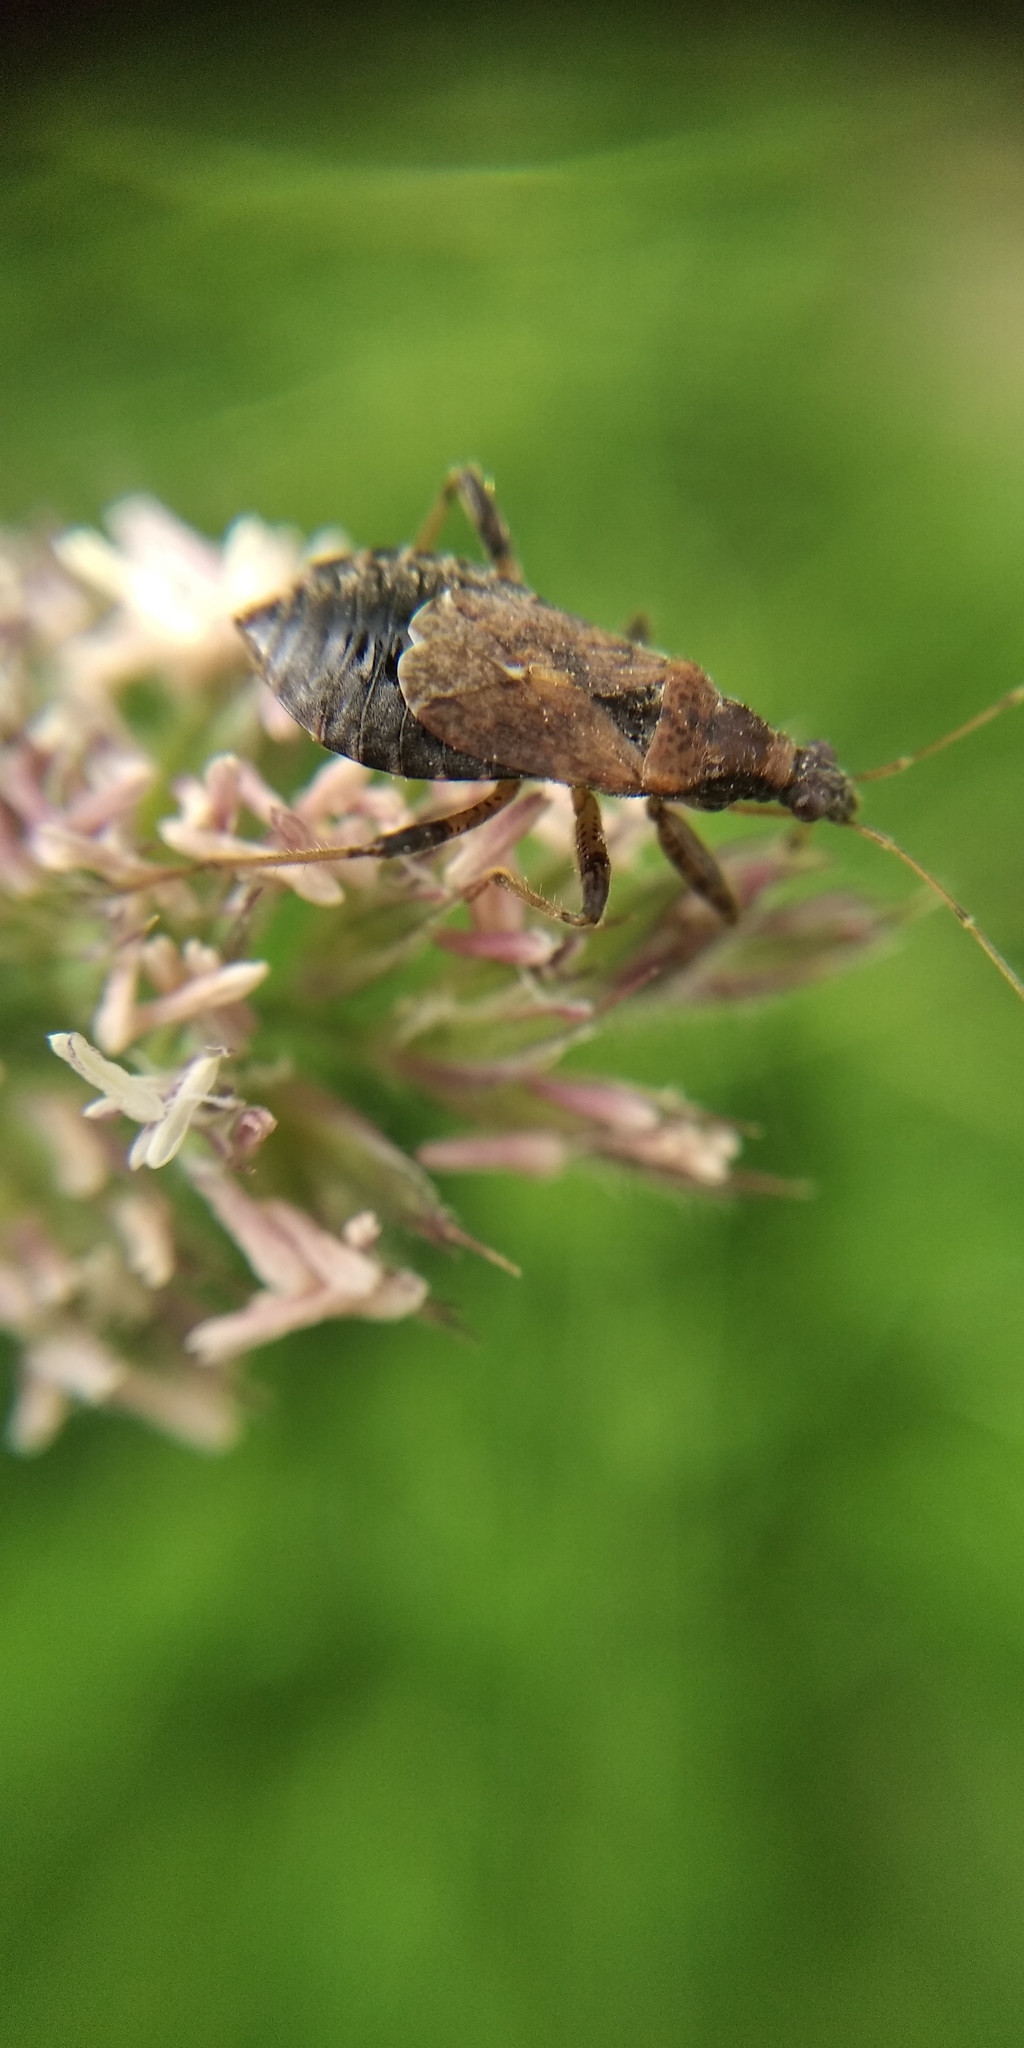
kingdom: Animalia
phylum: Arthropoda
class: Insecta
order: Hemiptera
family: Nabidae
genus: Himacerus
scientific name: Himacerus mirmicoides
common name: Ant damsel bug
